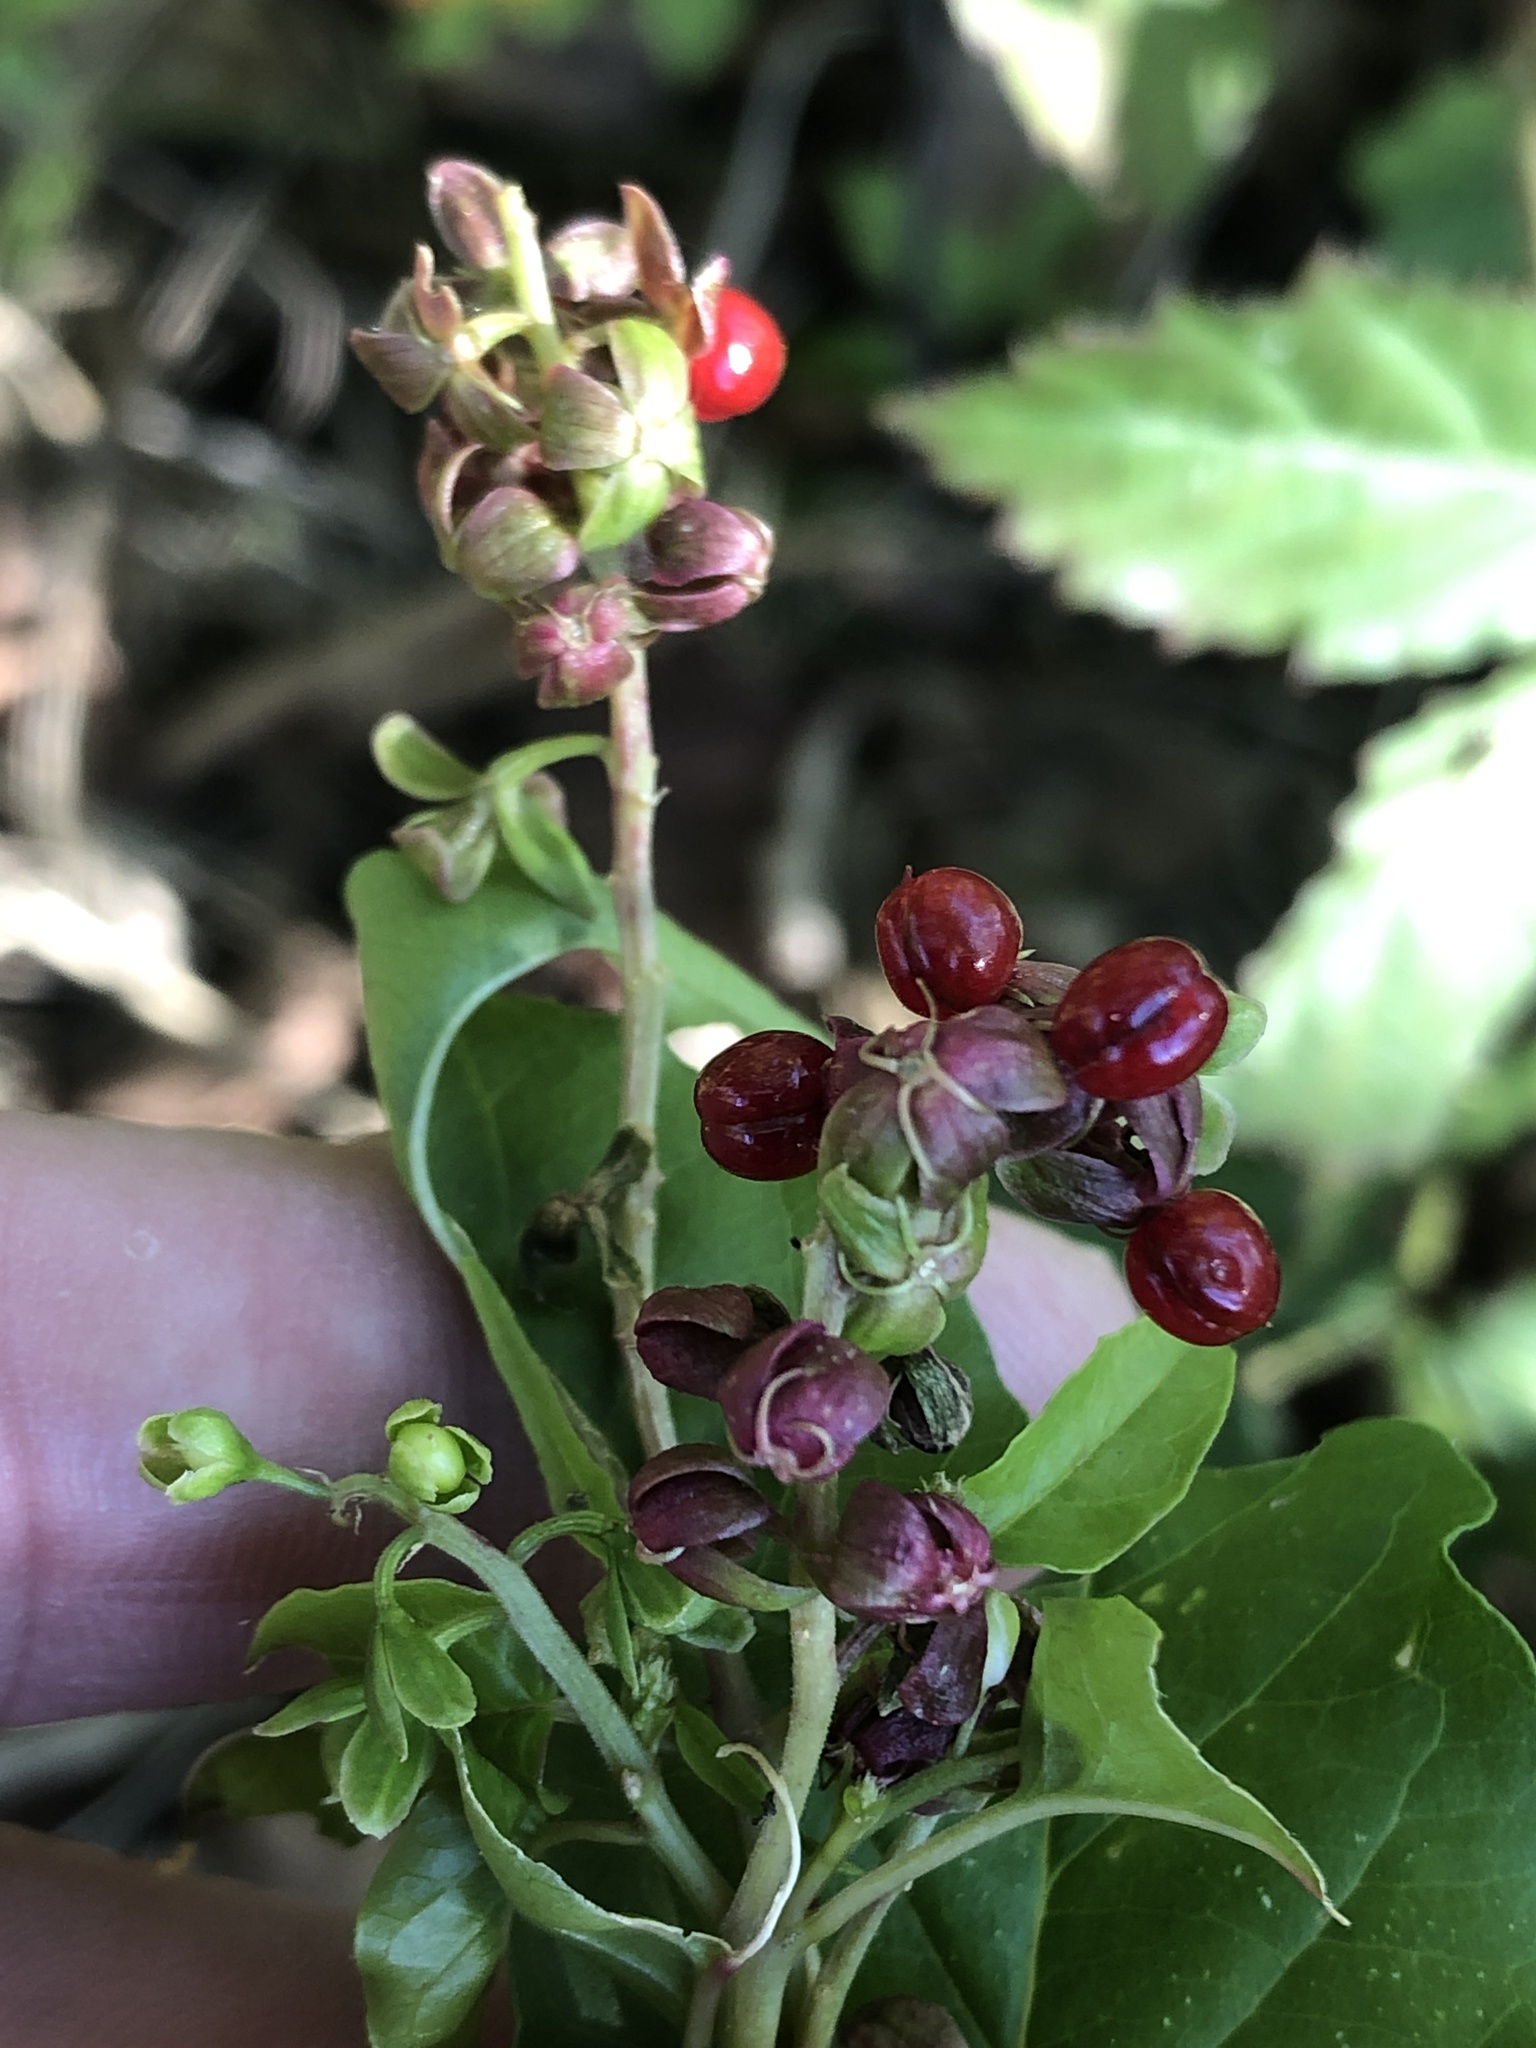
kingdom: Plantae
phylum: Tracheophyta
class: Magnoliopsida
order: Caryophyllales
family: Phytolaccaceae
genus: Rivina
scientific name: Rivina humilis
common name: Rougeplant
